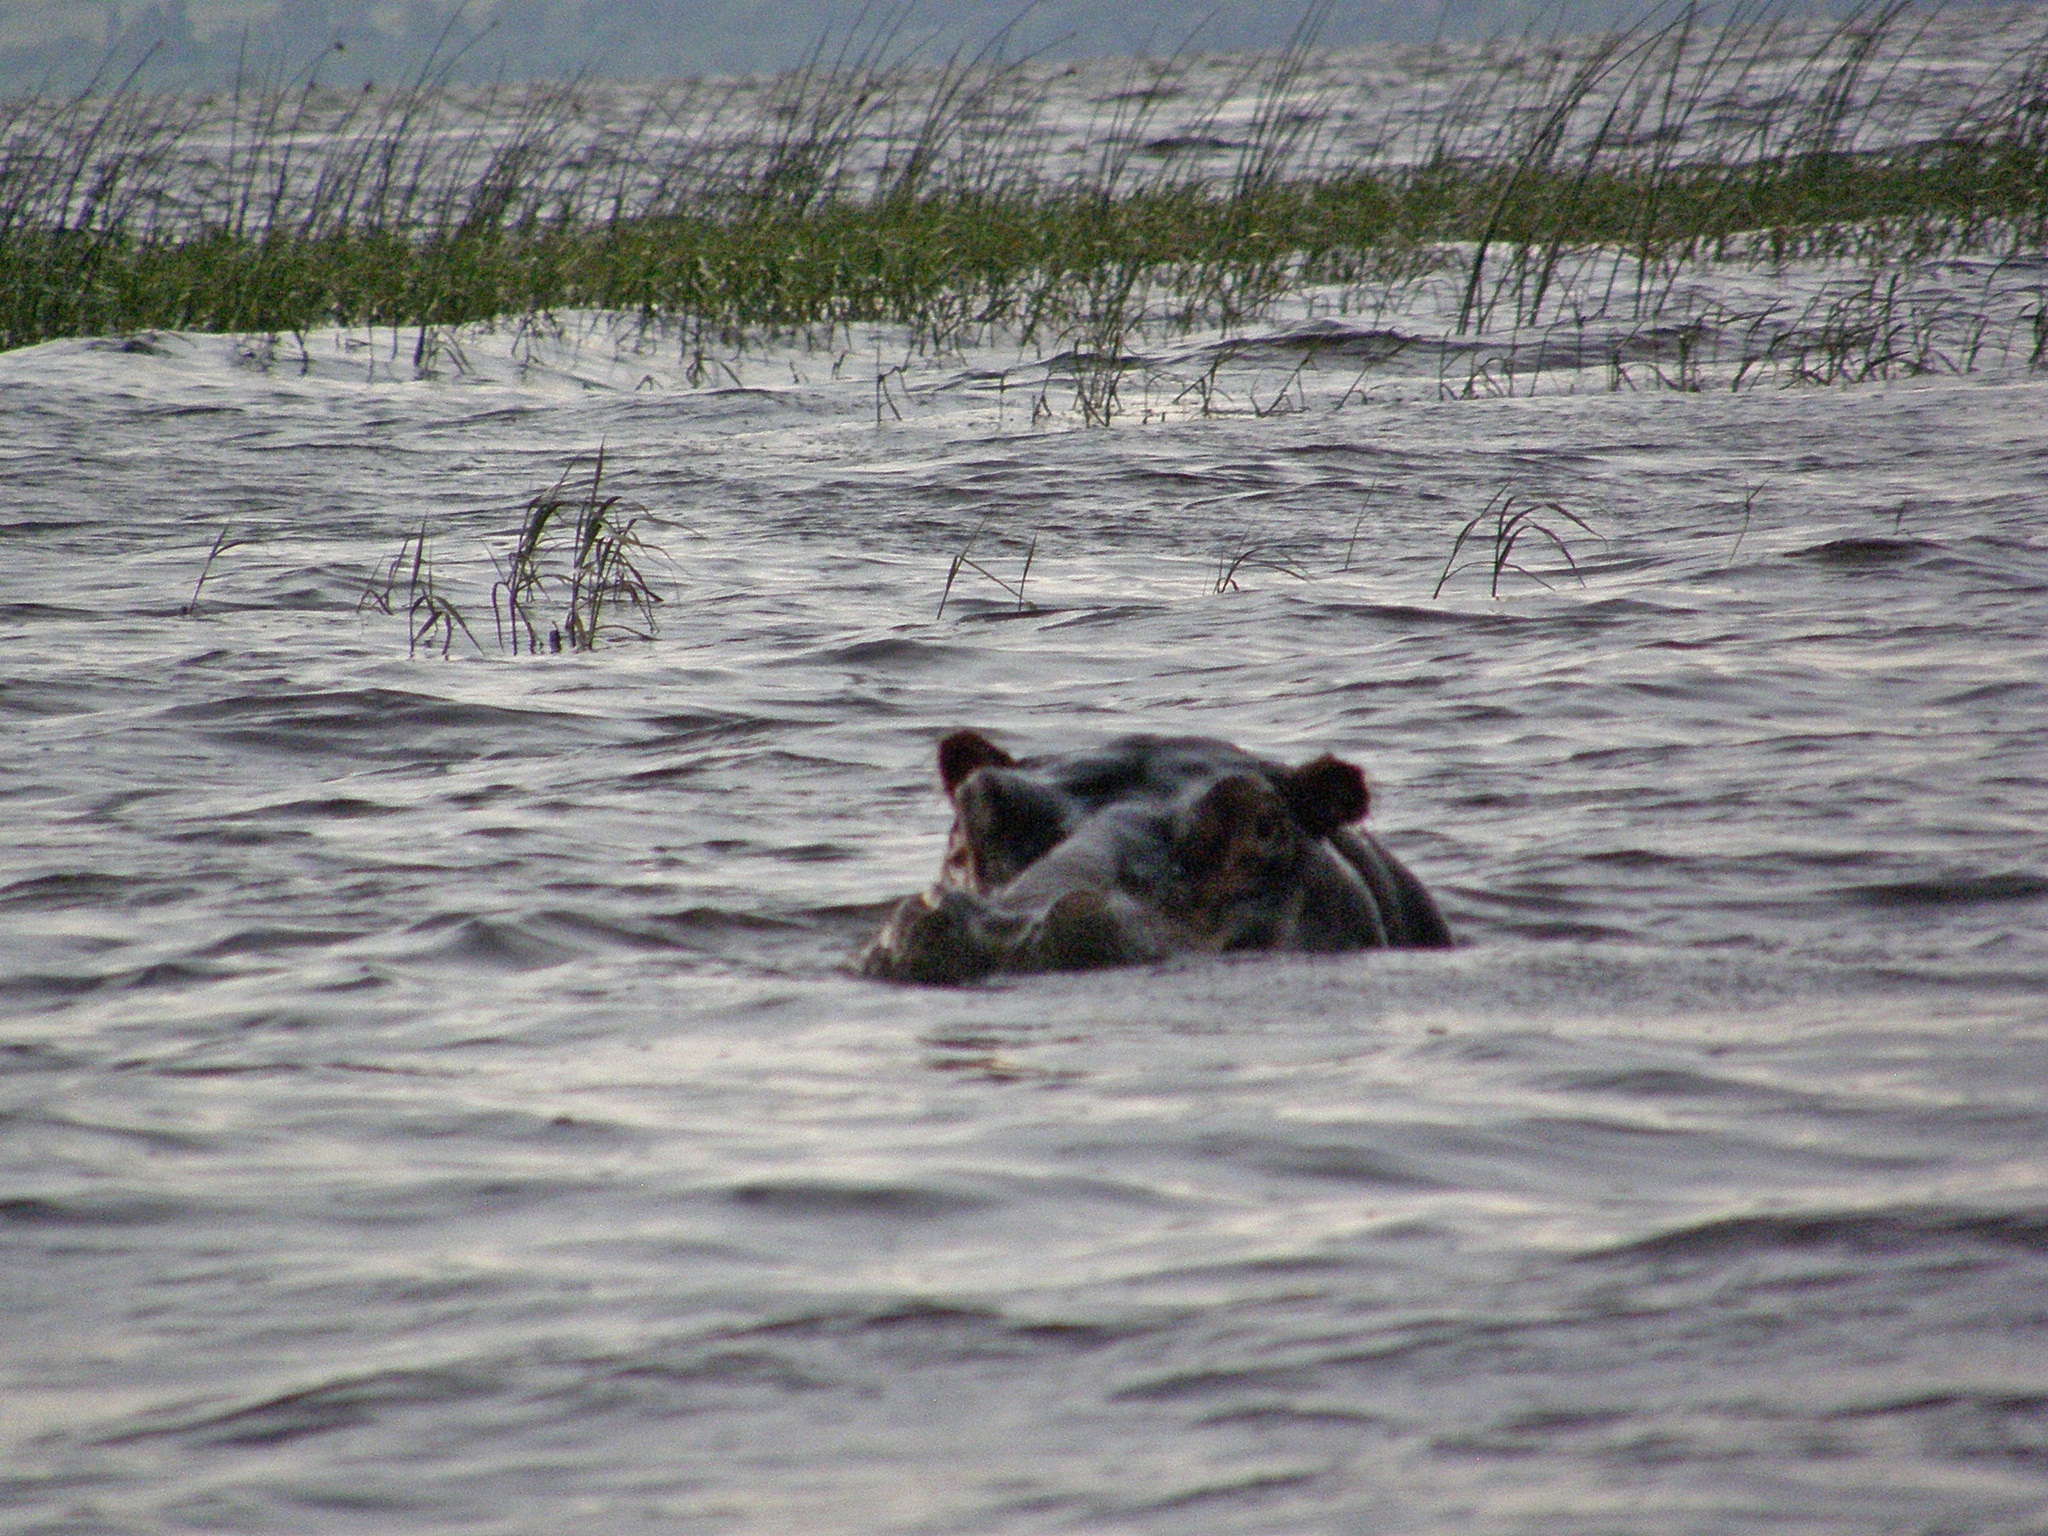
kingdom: Animalia
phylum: Chordata
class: Mammalia
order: Artiodactyla
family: Hippopotamidae
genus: Hippopotamus
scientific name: Hippopotamus amphibius
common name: Common hippopotamus
